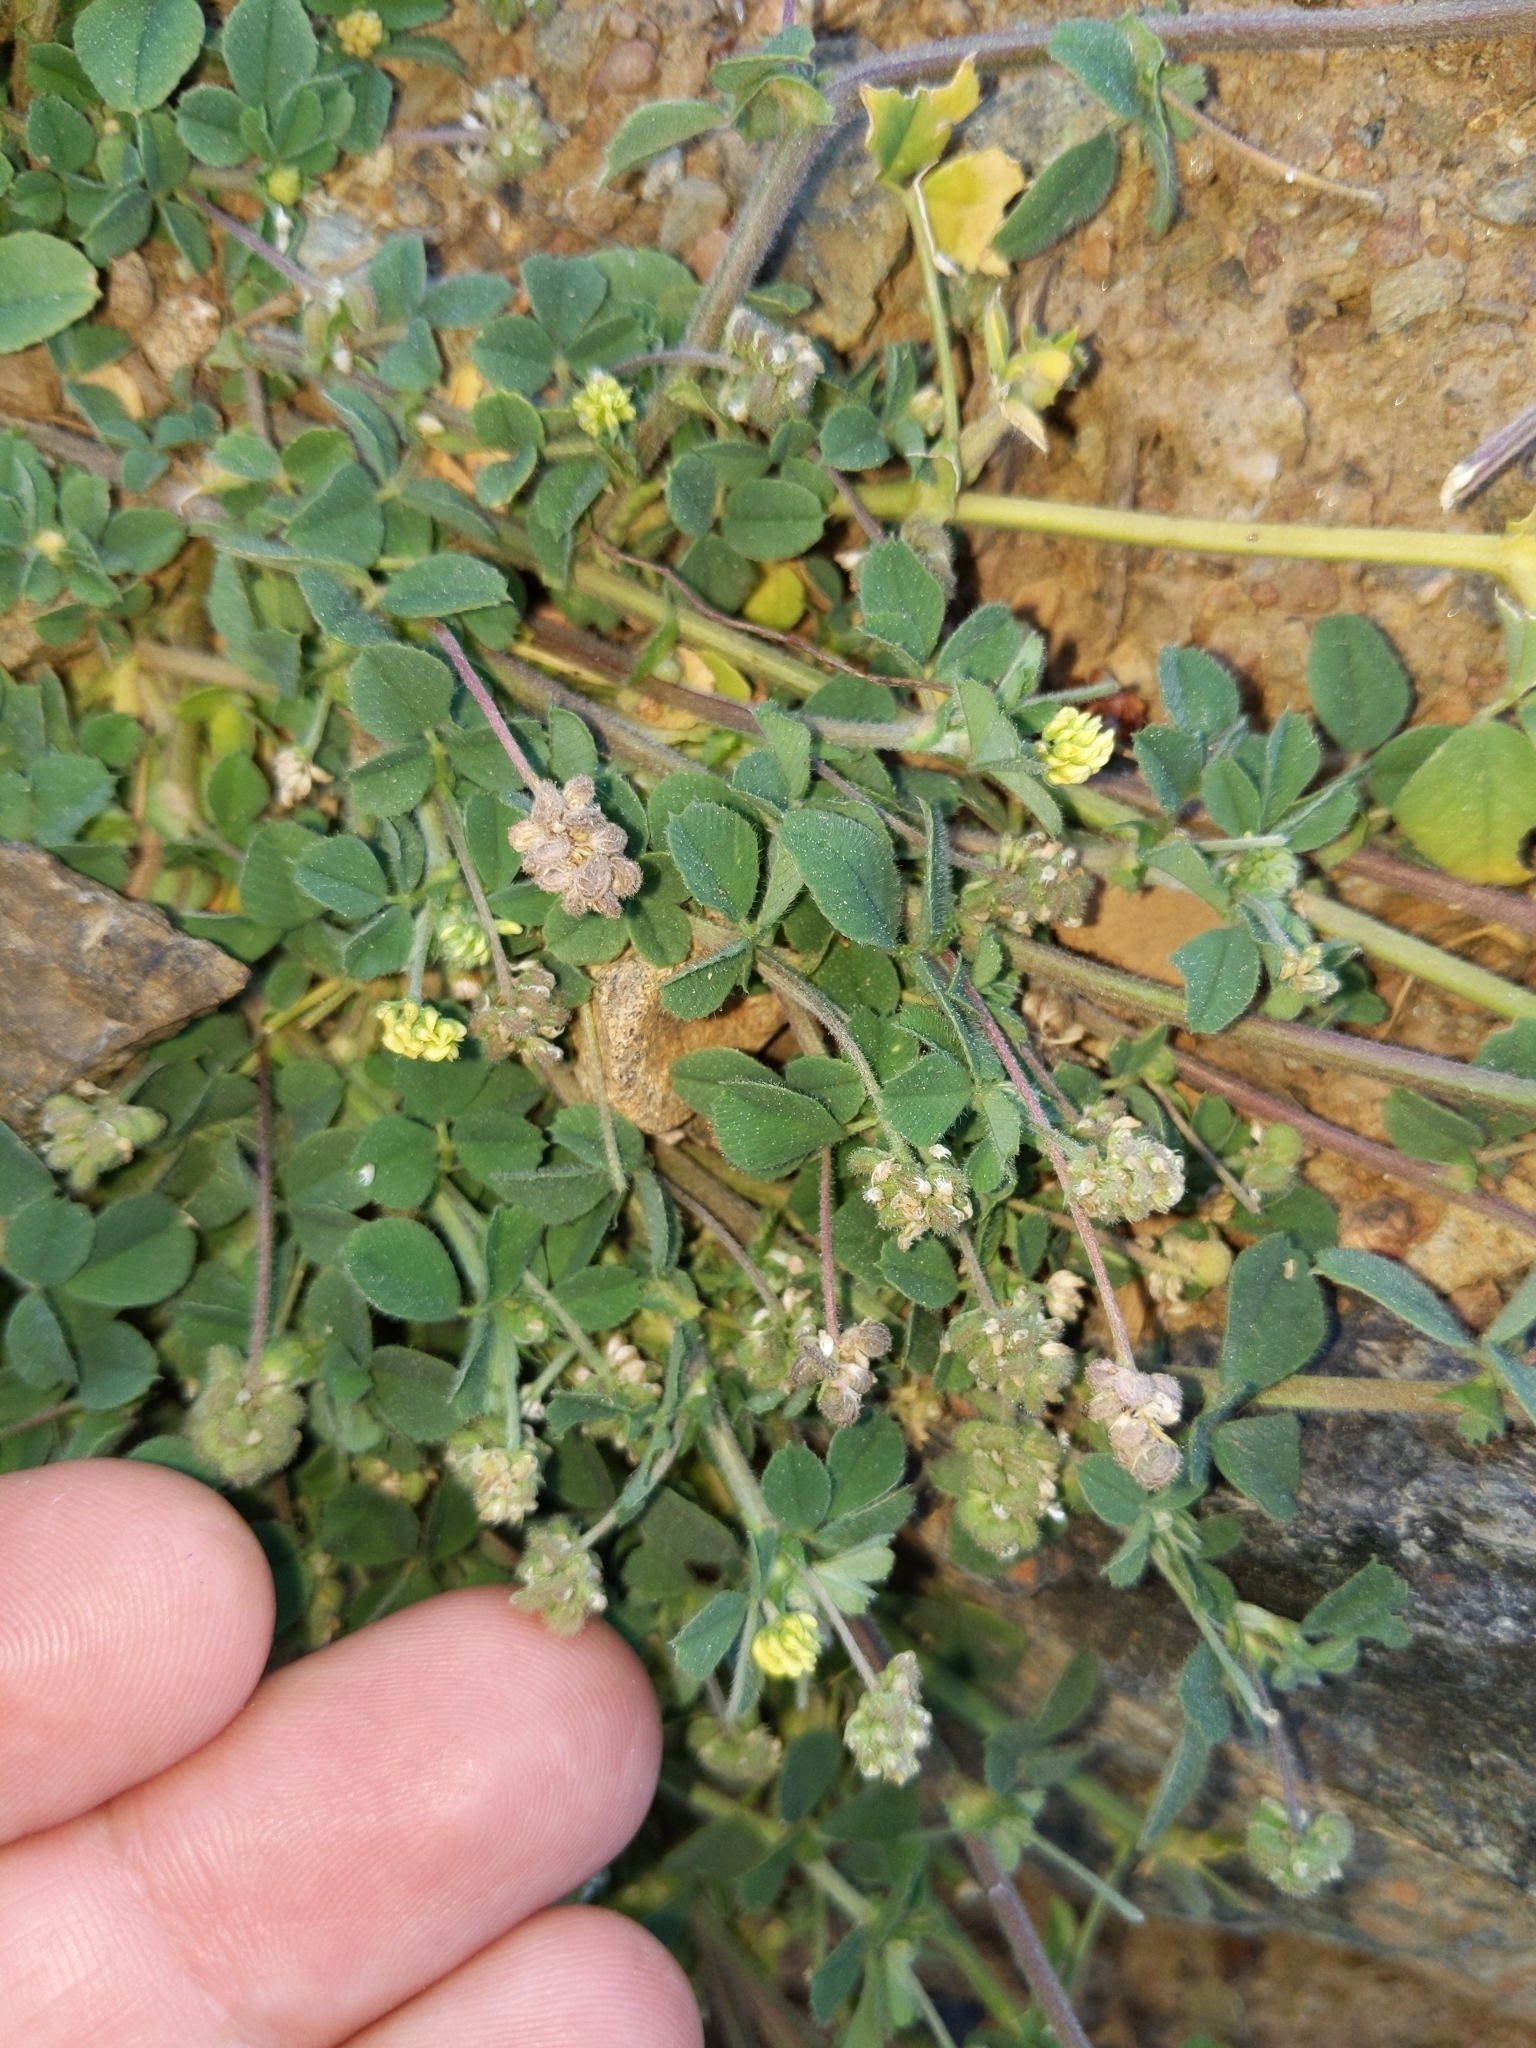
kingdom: Plantae
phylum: Tracheophyta
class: Magnoliopsida
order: Fabales
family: Fabaceae
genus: Medicago
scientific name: Medicago lupulina
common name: Black medick
